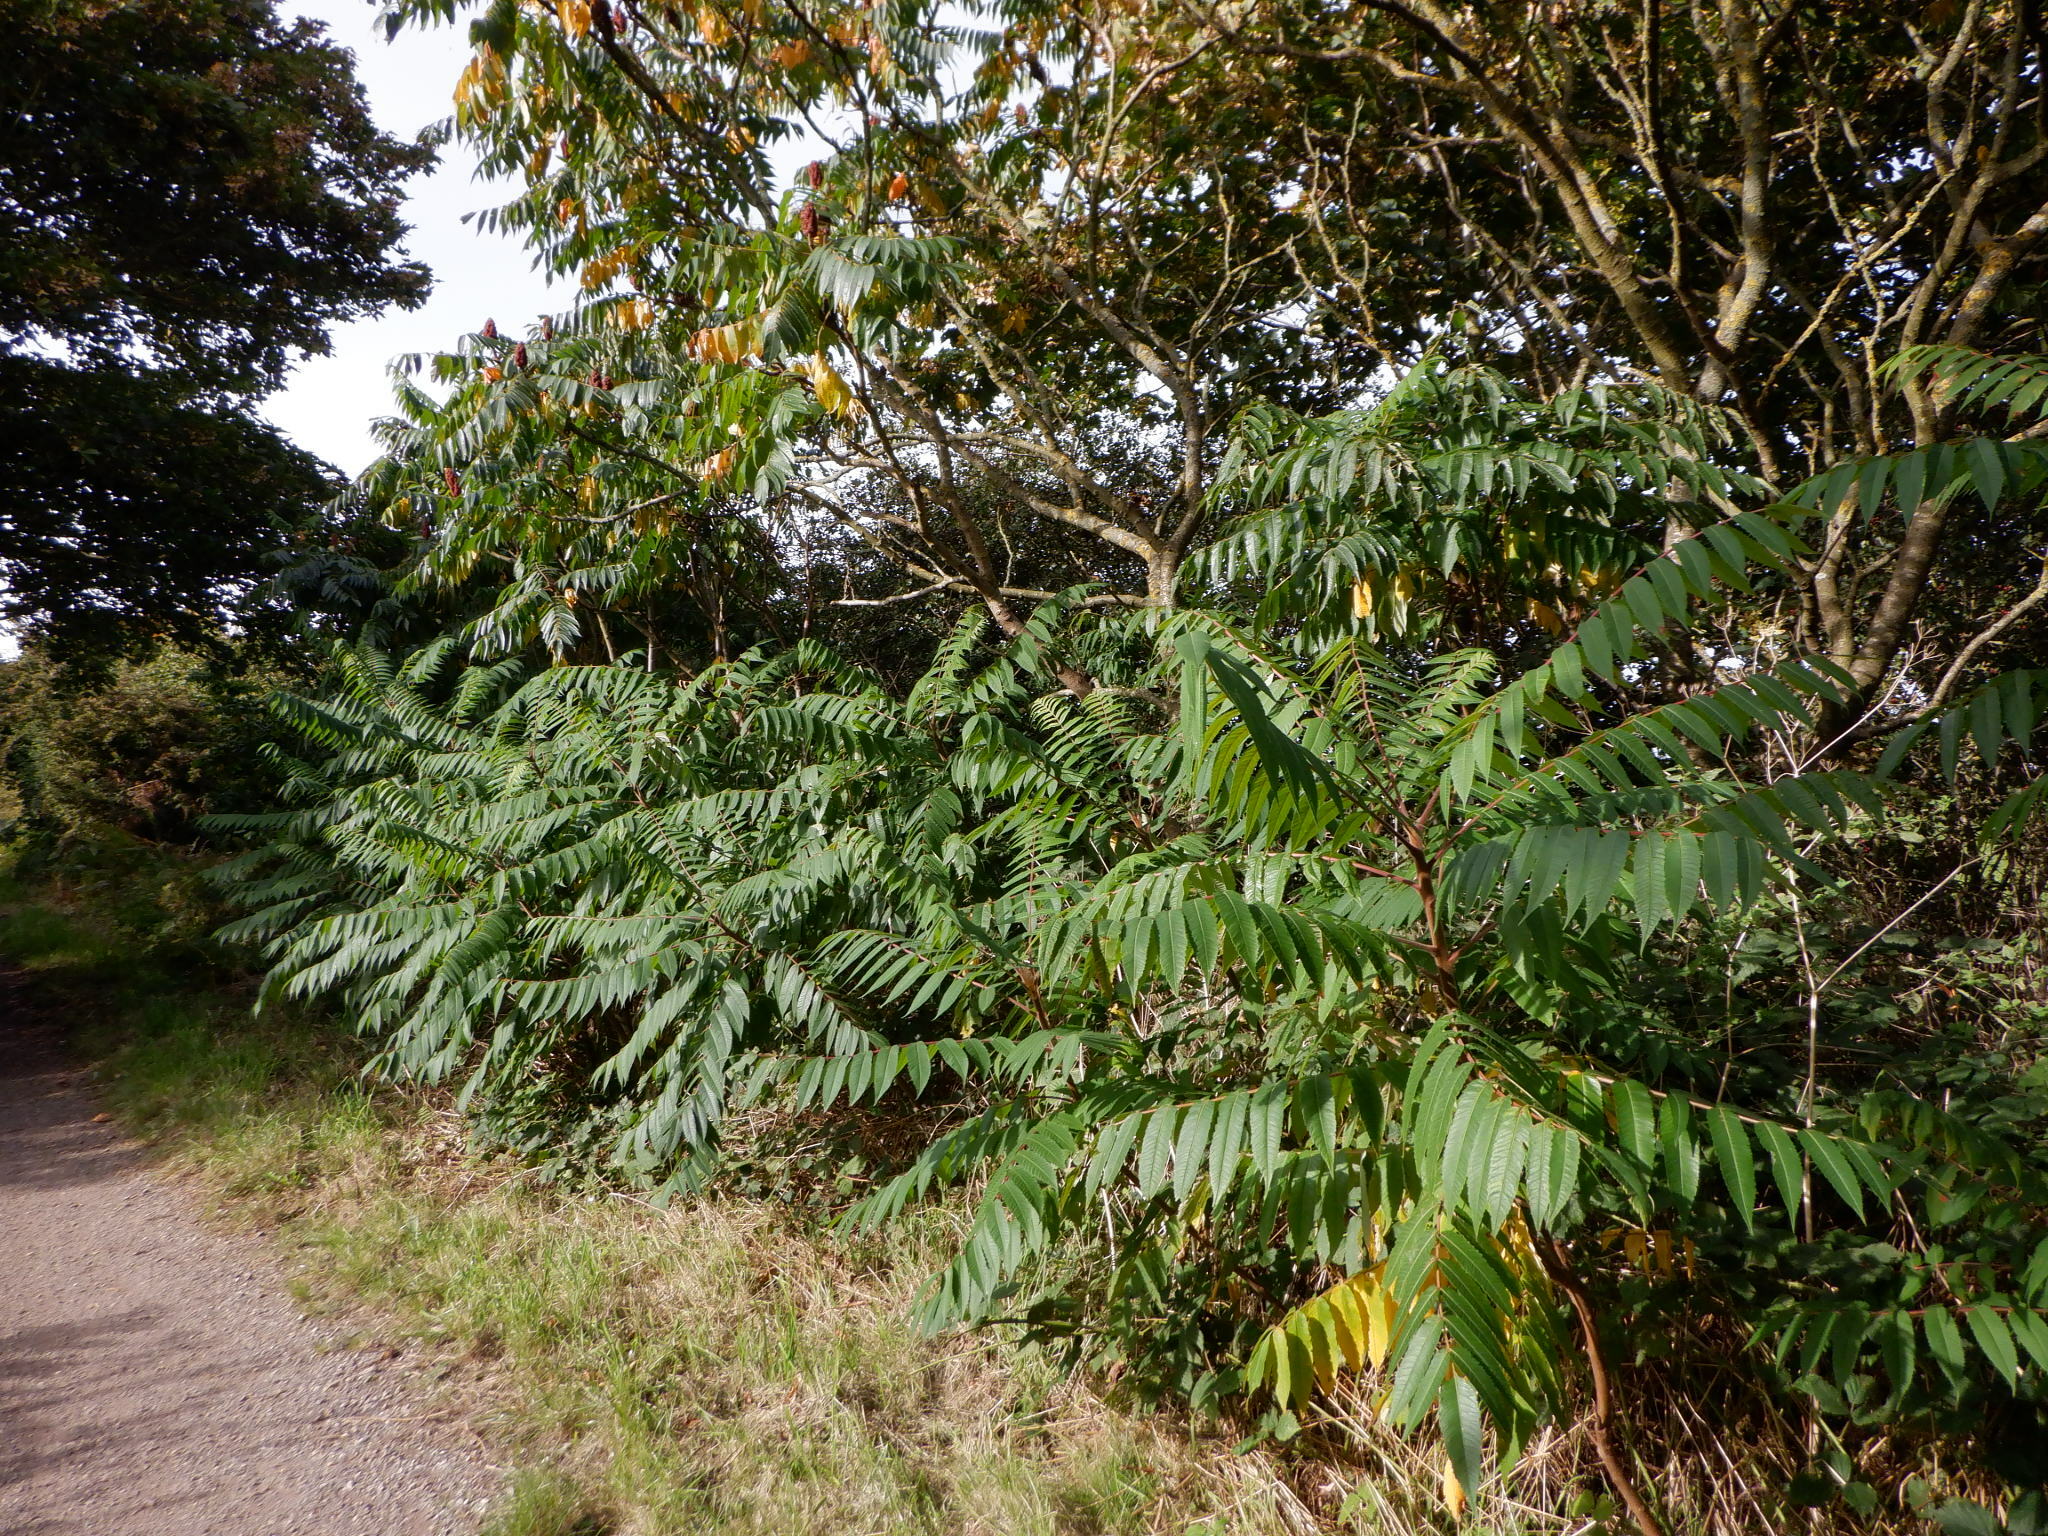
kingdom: Plantae
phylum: Tracheophyta
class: Magnoliopsida
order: Sapindales
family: Anacardiaceae
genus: Rhus
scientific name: Rhus typhina
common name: Staghorn sumac
